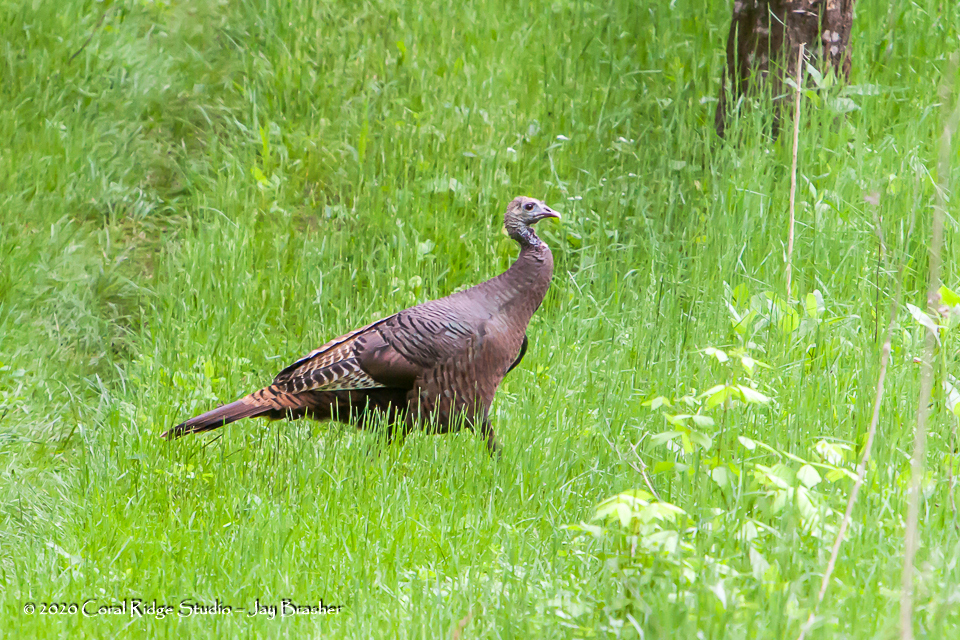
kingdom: Animalia
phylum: Chordata
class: Aves
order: Galliformes
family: Phasianidae
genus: Meleagris
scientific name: Meleagris gallopavo
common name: Wild turkey
